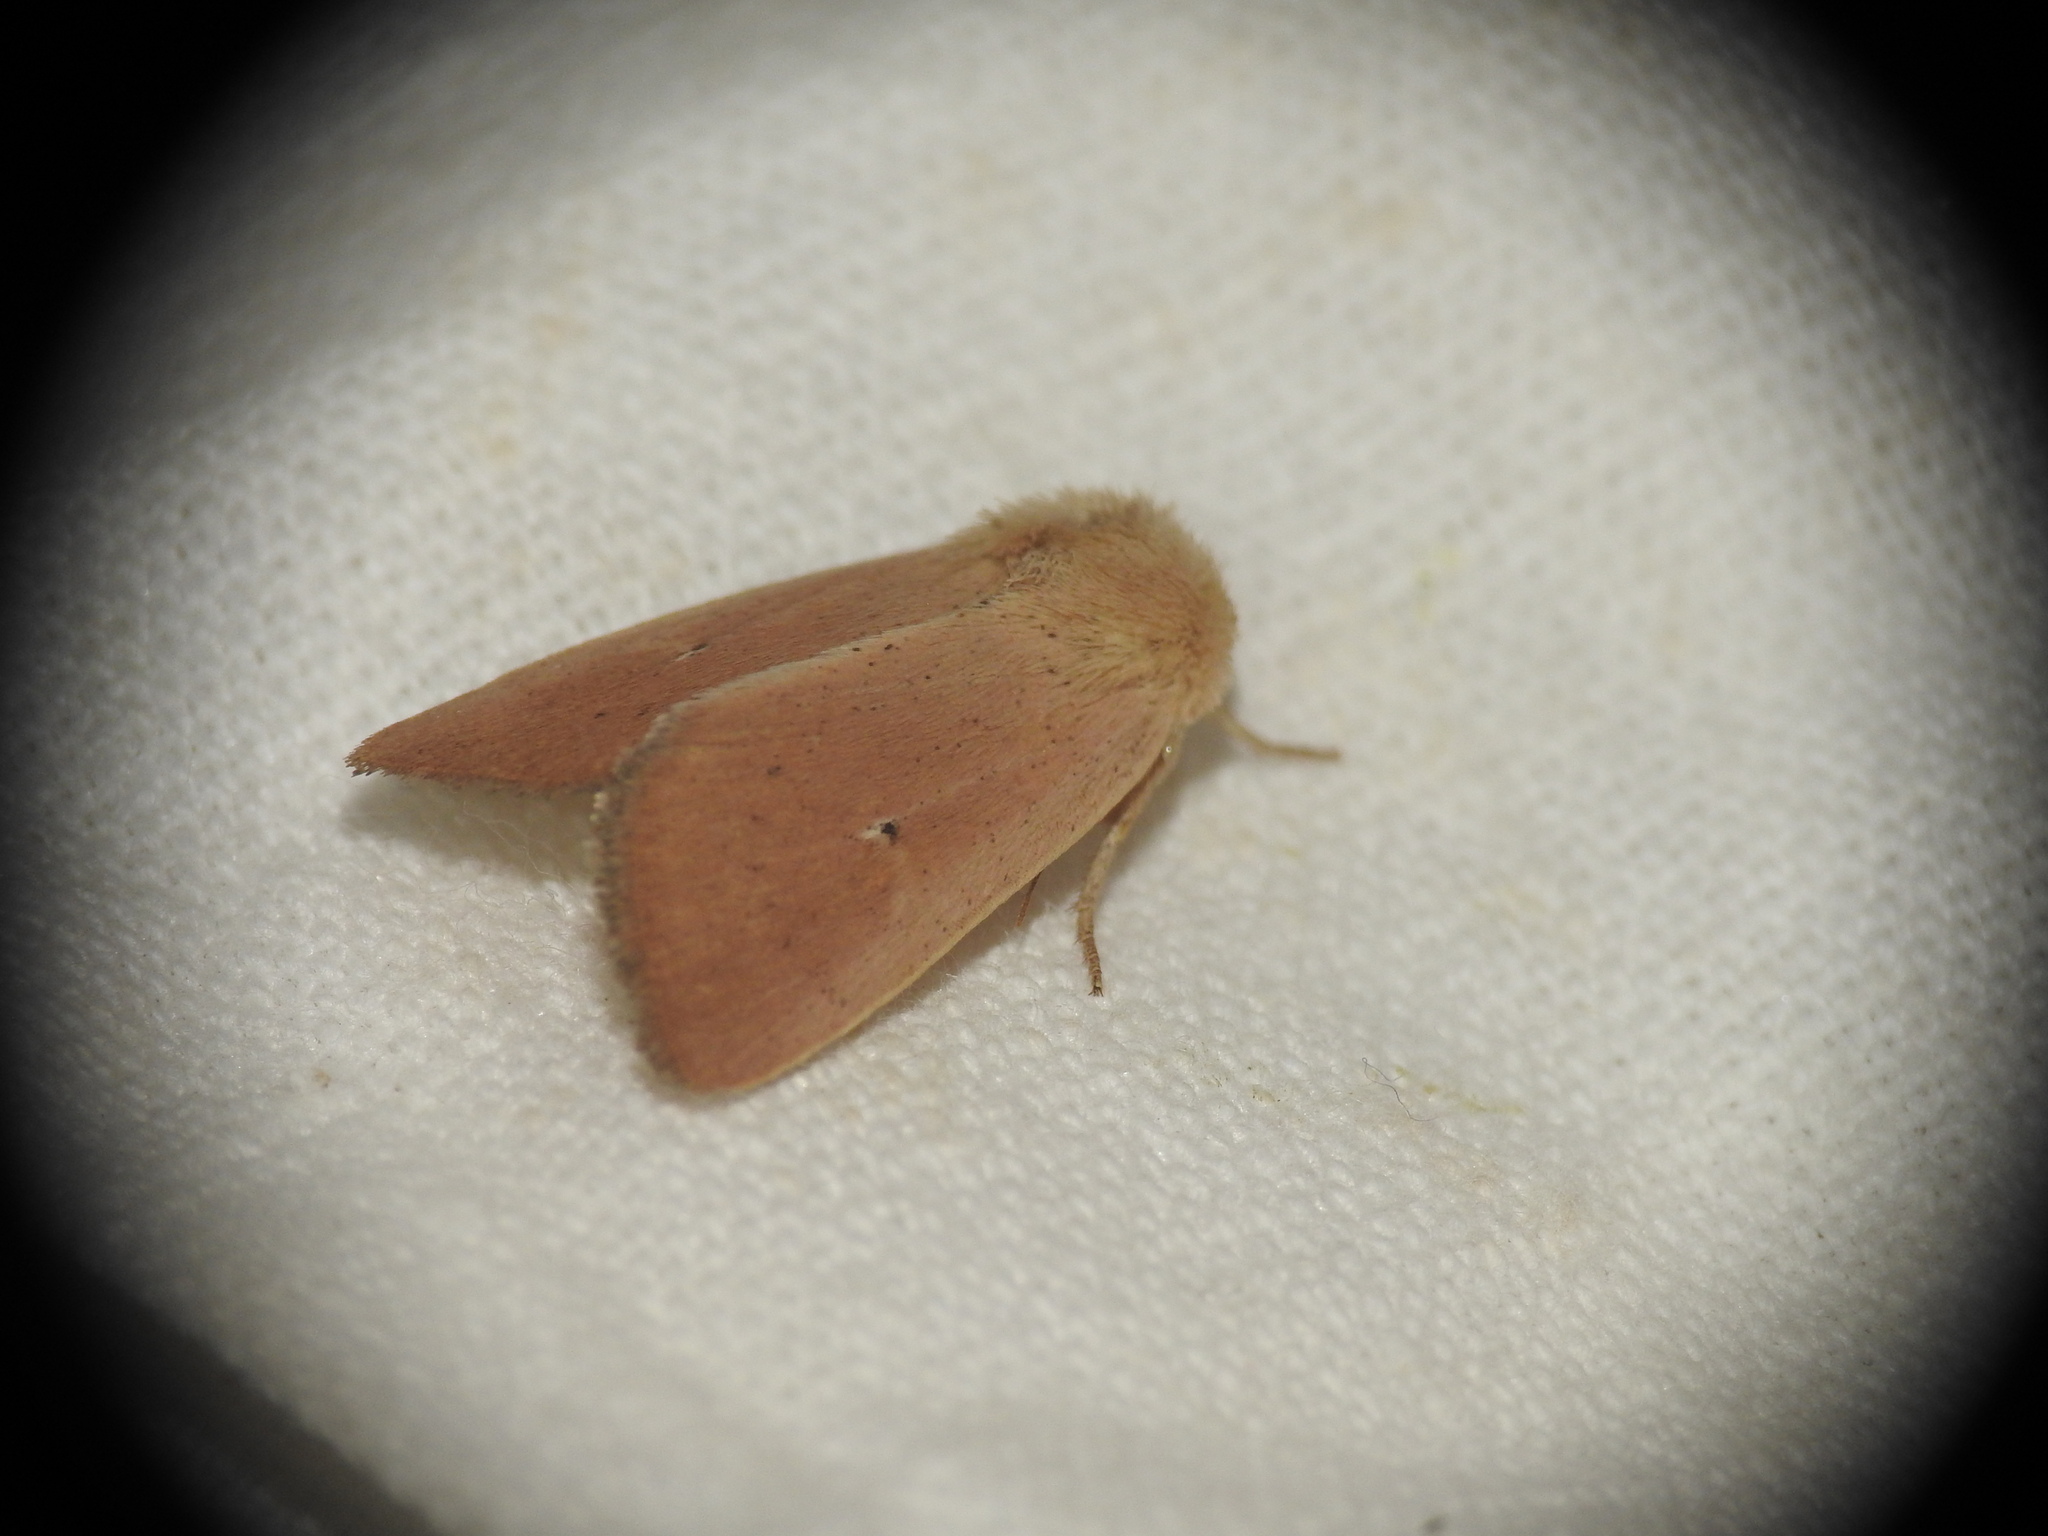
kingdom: Animalia
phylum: Arthropoda
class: Insecta
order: Lepidoptera
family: Noctuidae
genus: Mythimna
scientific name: Mythimna sicula
